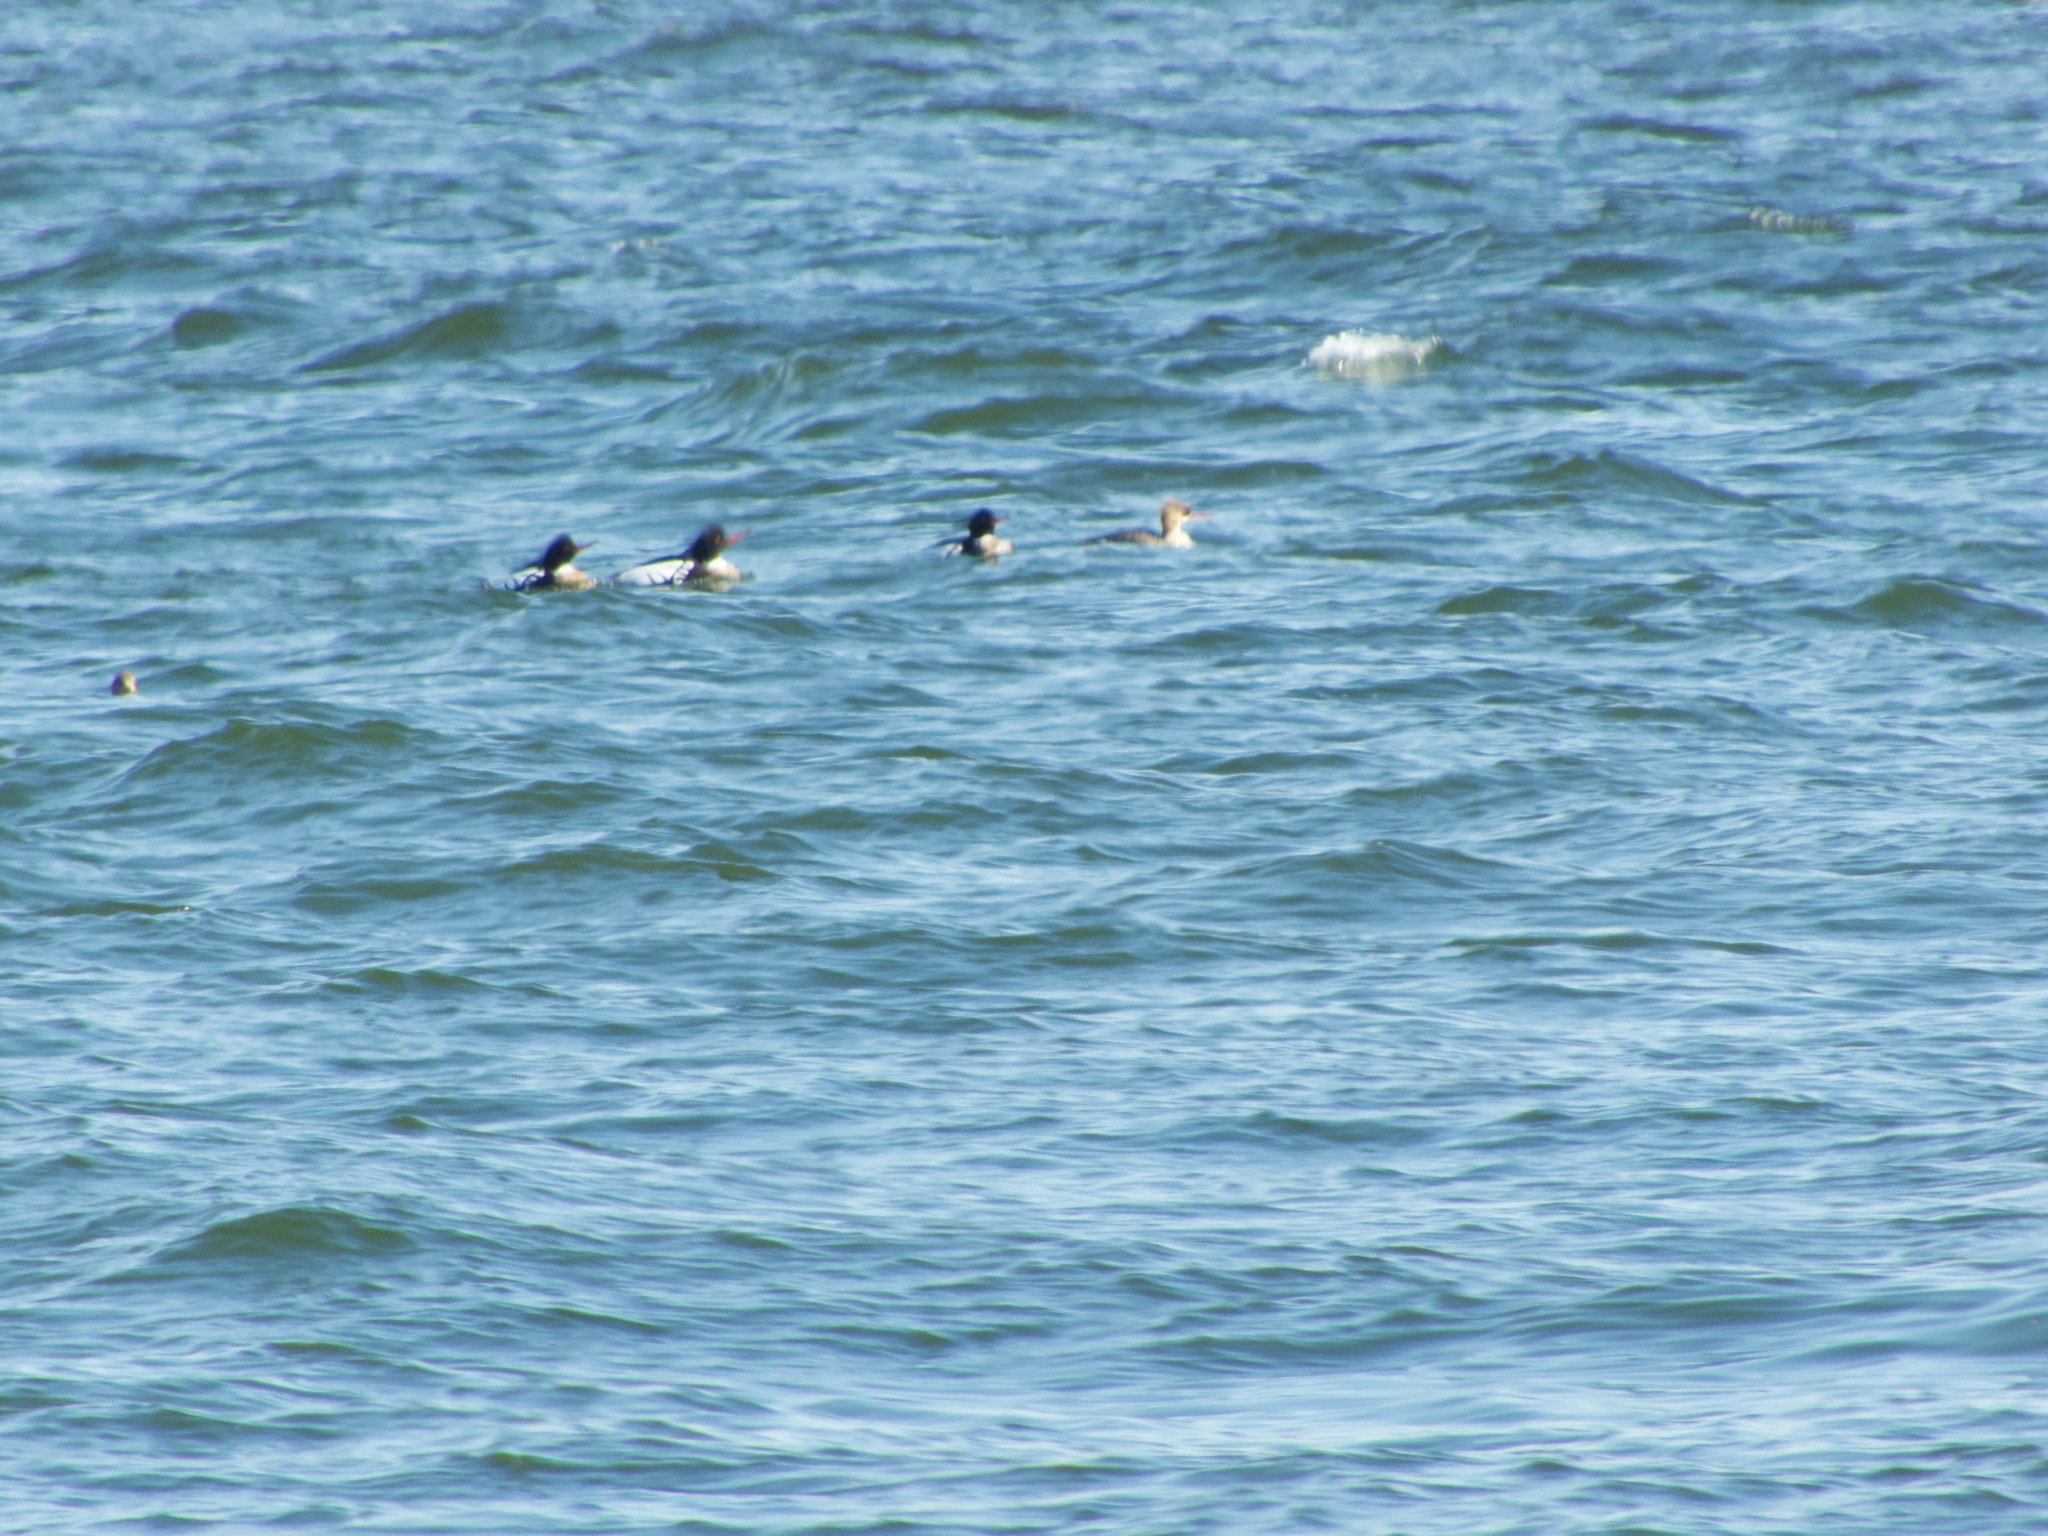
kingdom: Animalia
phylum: Chordata
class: Aves
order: Anseriformes
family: Anatidae
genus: Mergus
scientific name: Mergus serrator
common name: Red-breasted merganser
